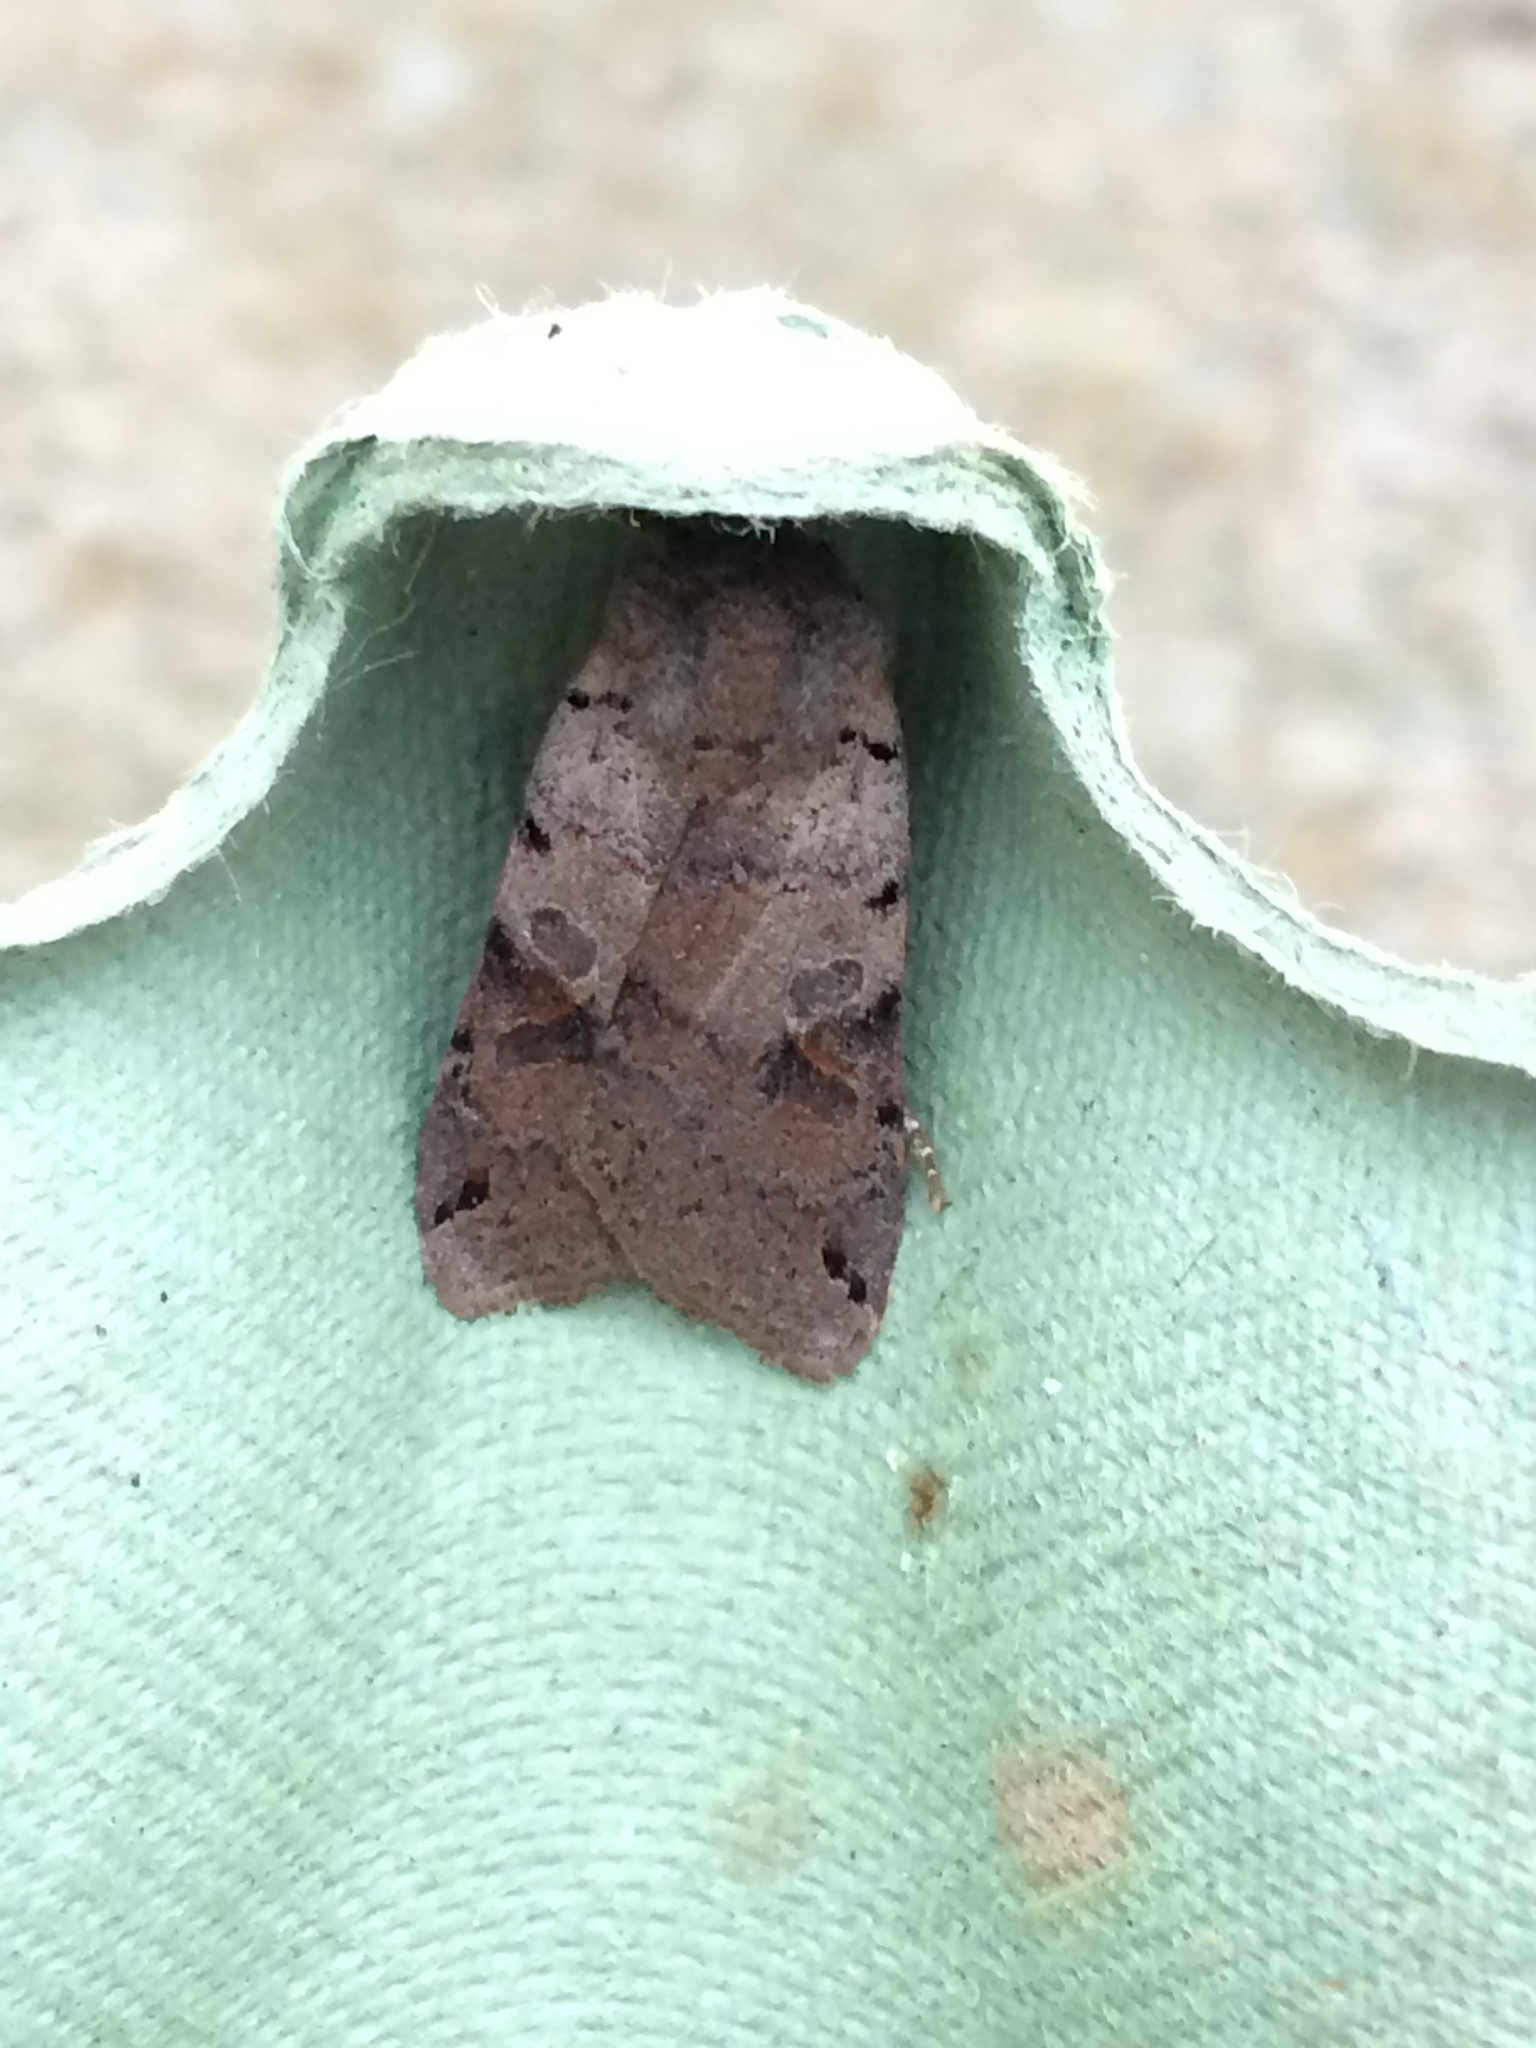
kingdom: Animalia
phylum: Arthropoda
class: Insecta
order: Lepidoptera
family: Noctuidae
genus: Agrochola
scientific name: Agrochola litura
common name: Brown-spot pinion
